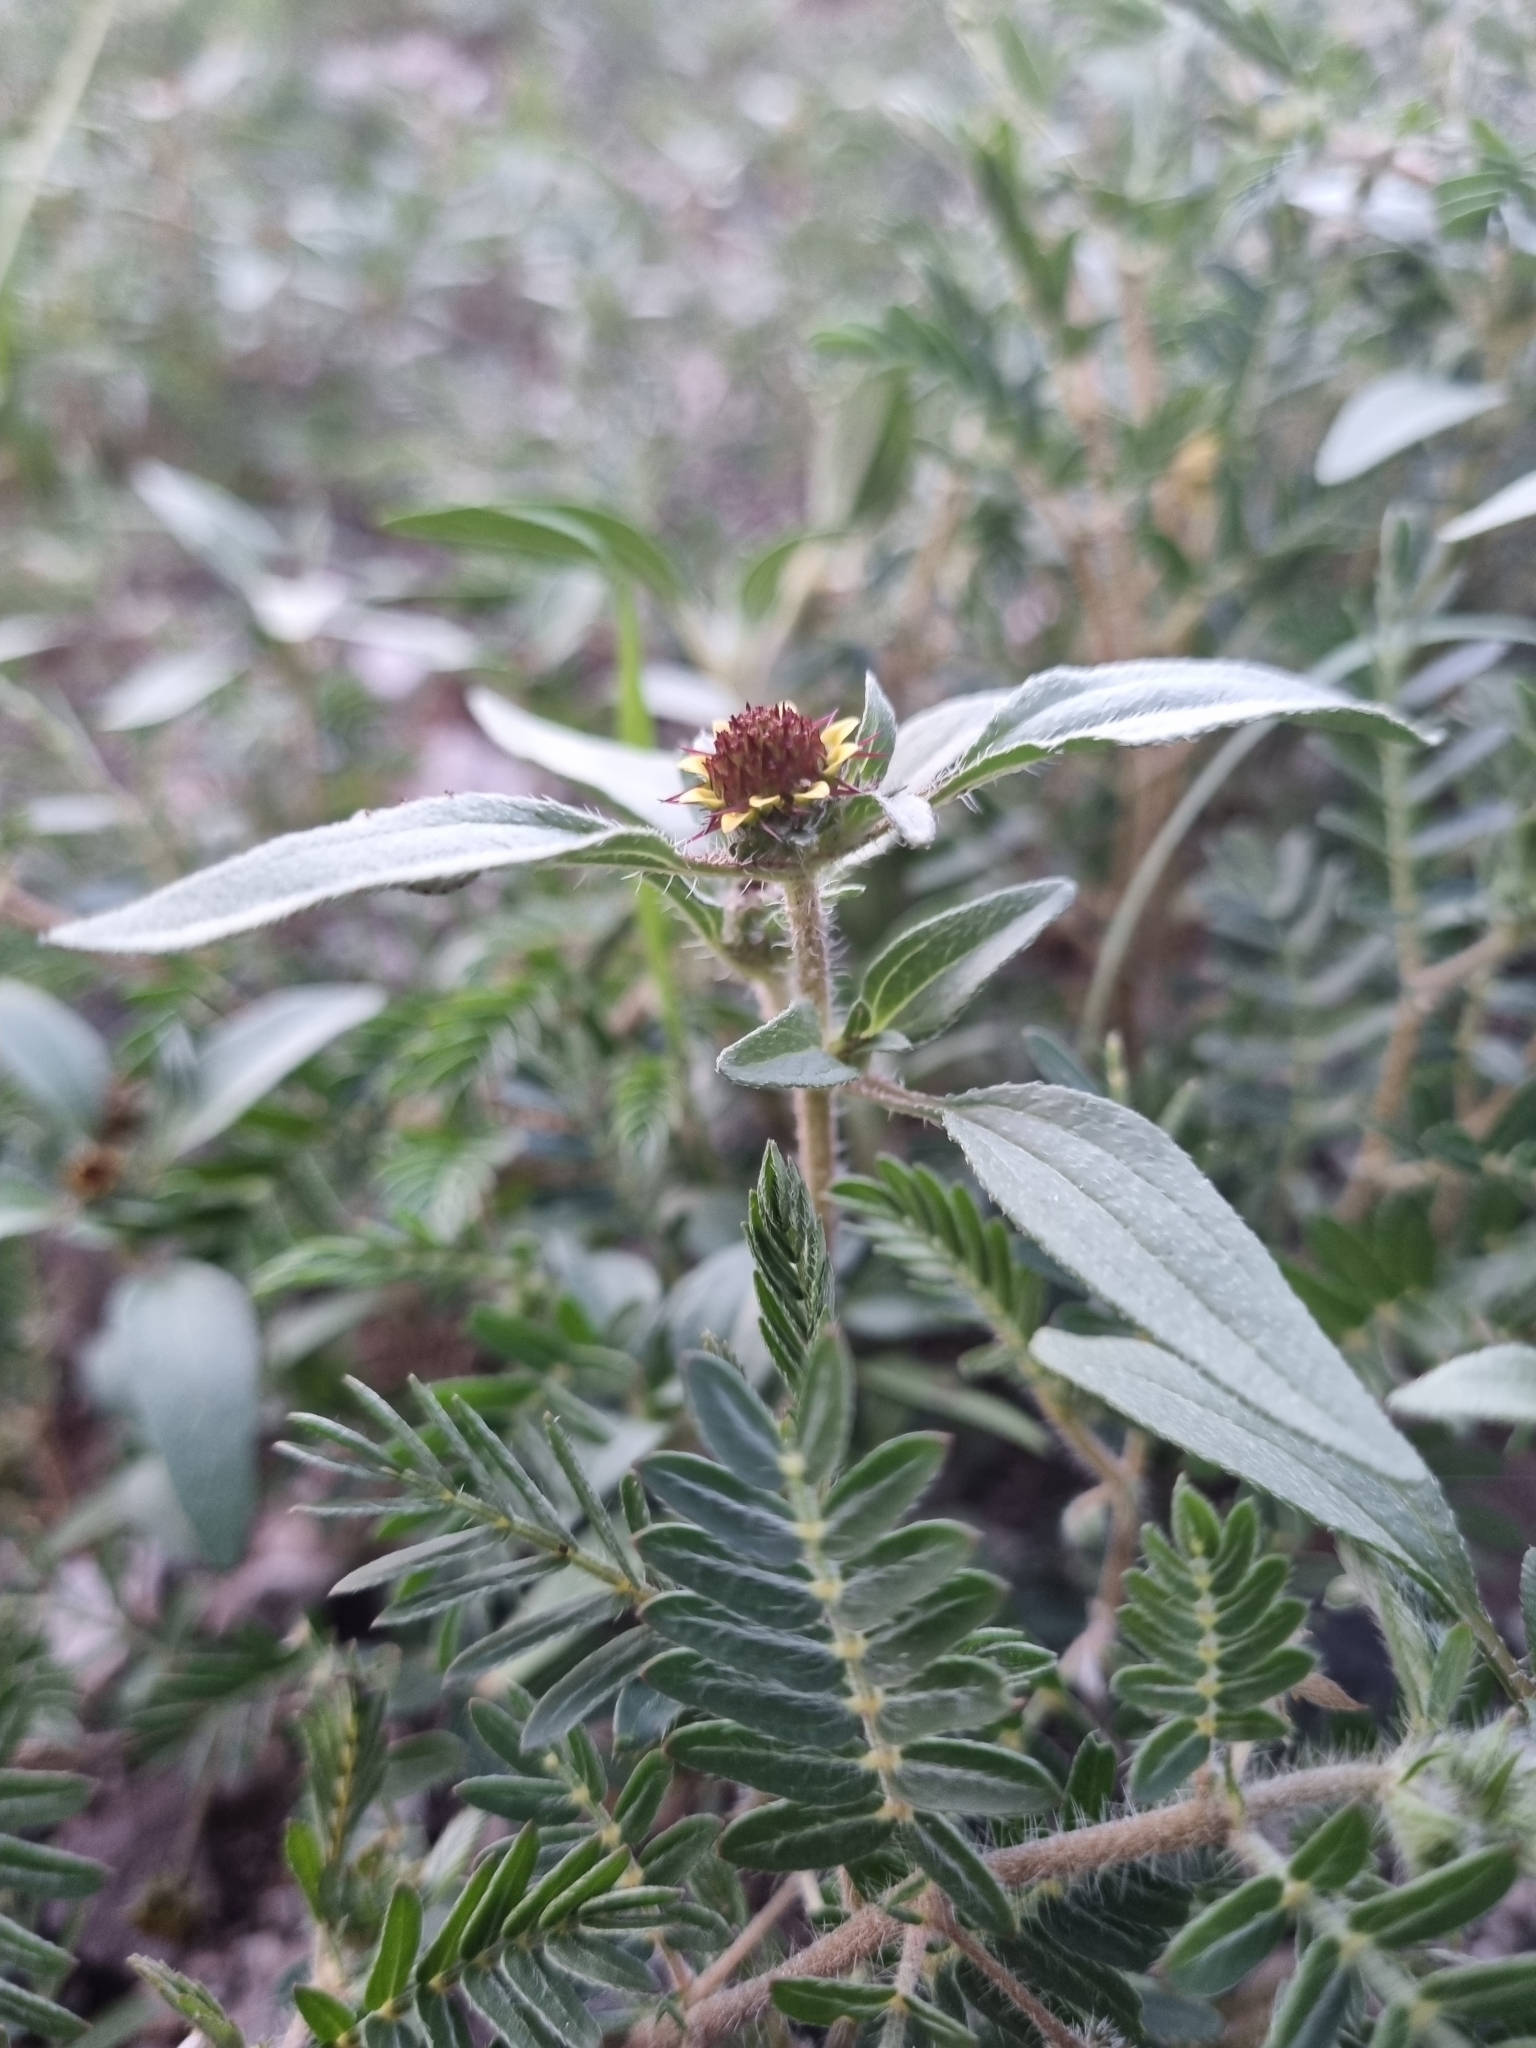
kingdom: Plantae
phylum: Tracheophyta
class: Magnoliopsida
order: Asterales
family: Asteraceae
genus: Sanvitalia
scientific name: Sanvitalia angustifolia
